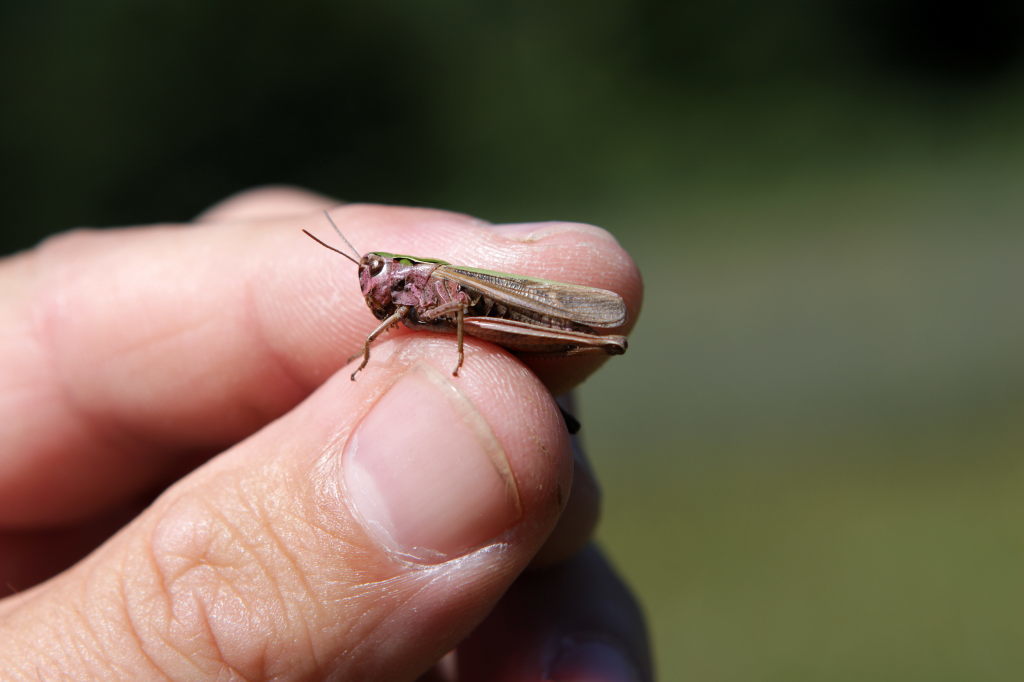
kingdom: Animalia
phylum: Arthropoda
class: Insecta
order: Orthoptera
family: Acrididae
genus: Omocestus
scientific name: Omocestus viridulus
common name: Common green grasshopper
